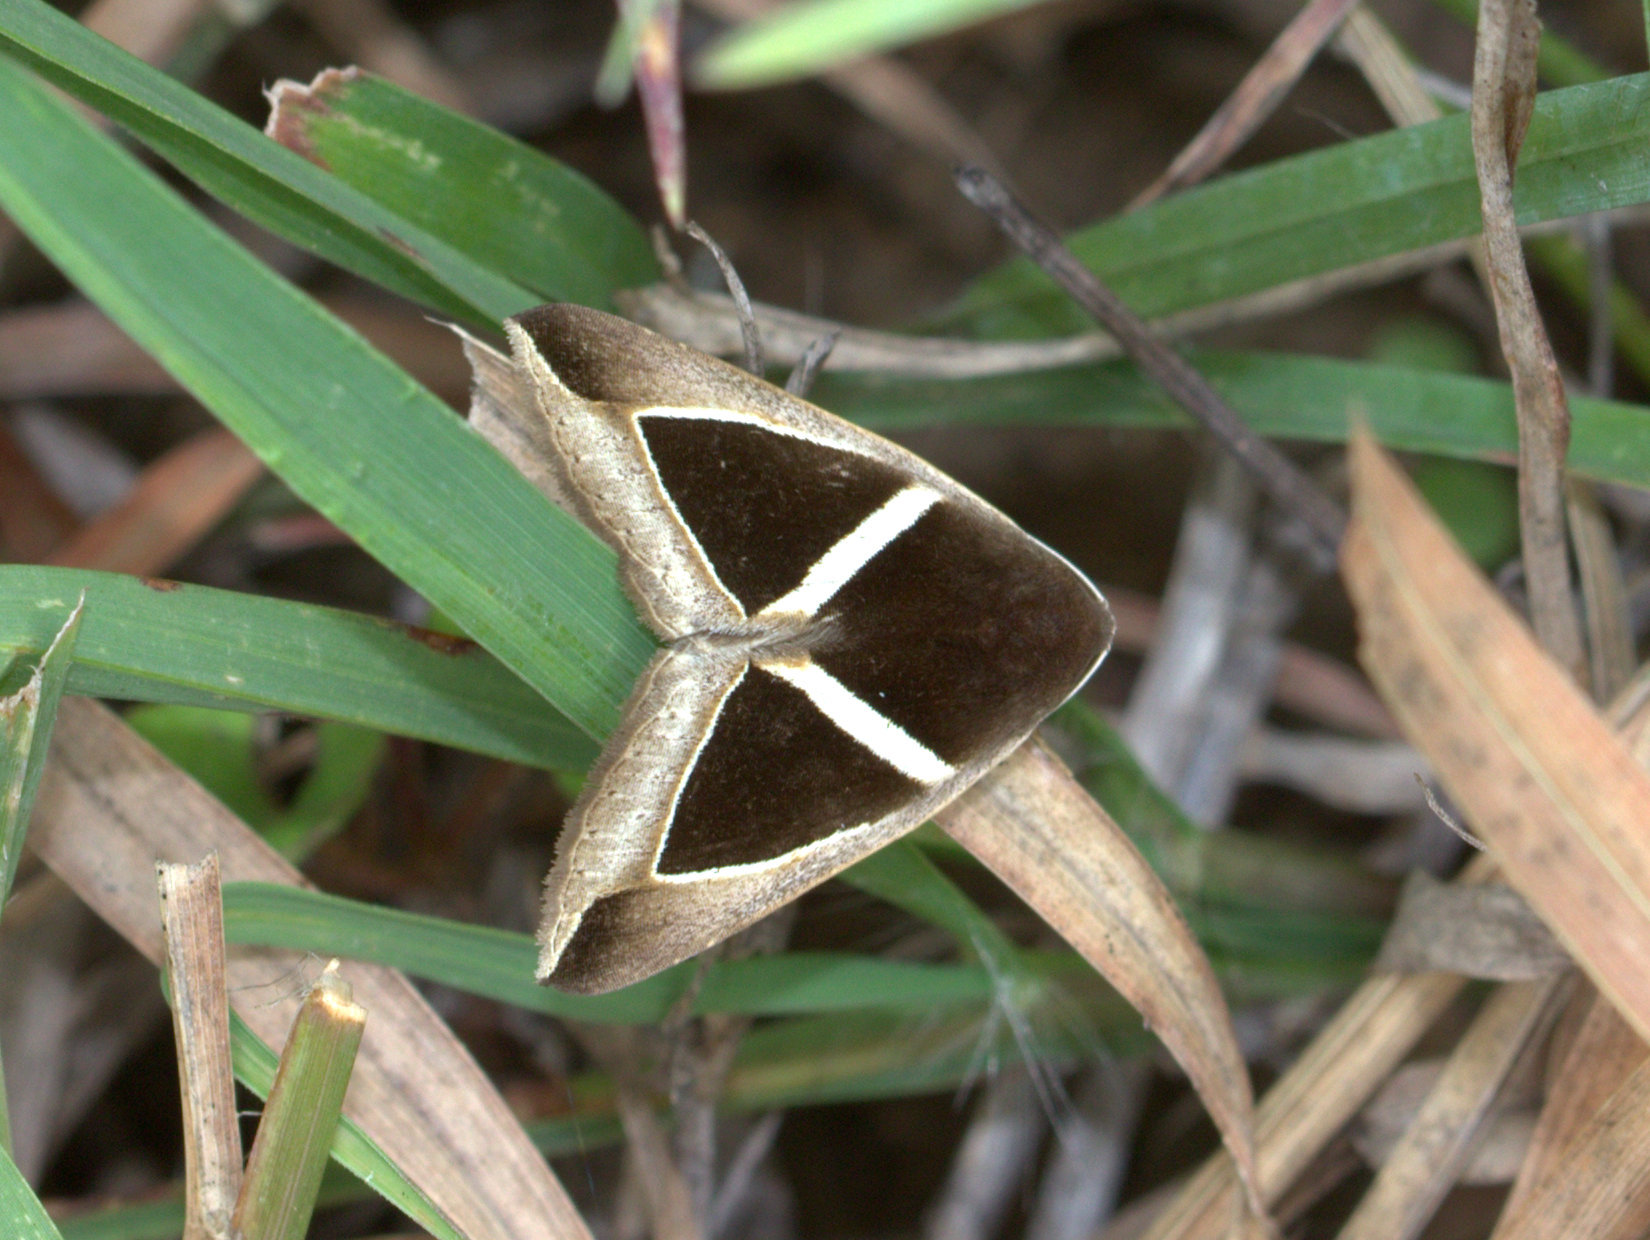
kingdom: Animalia
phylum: Arthropoda
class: Insecta
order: Lepidoptera
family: Erebidae
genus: Chalciope
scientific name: Chalciope mygdon
